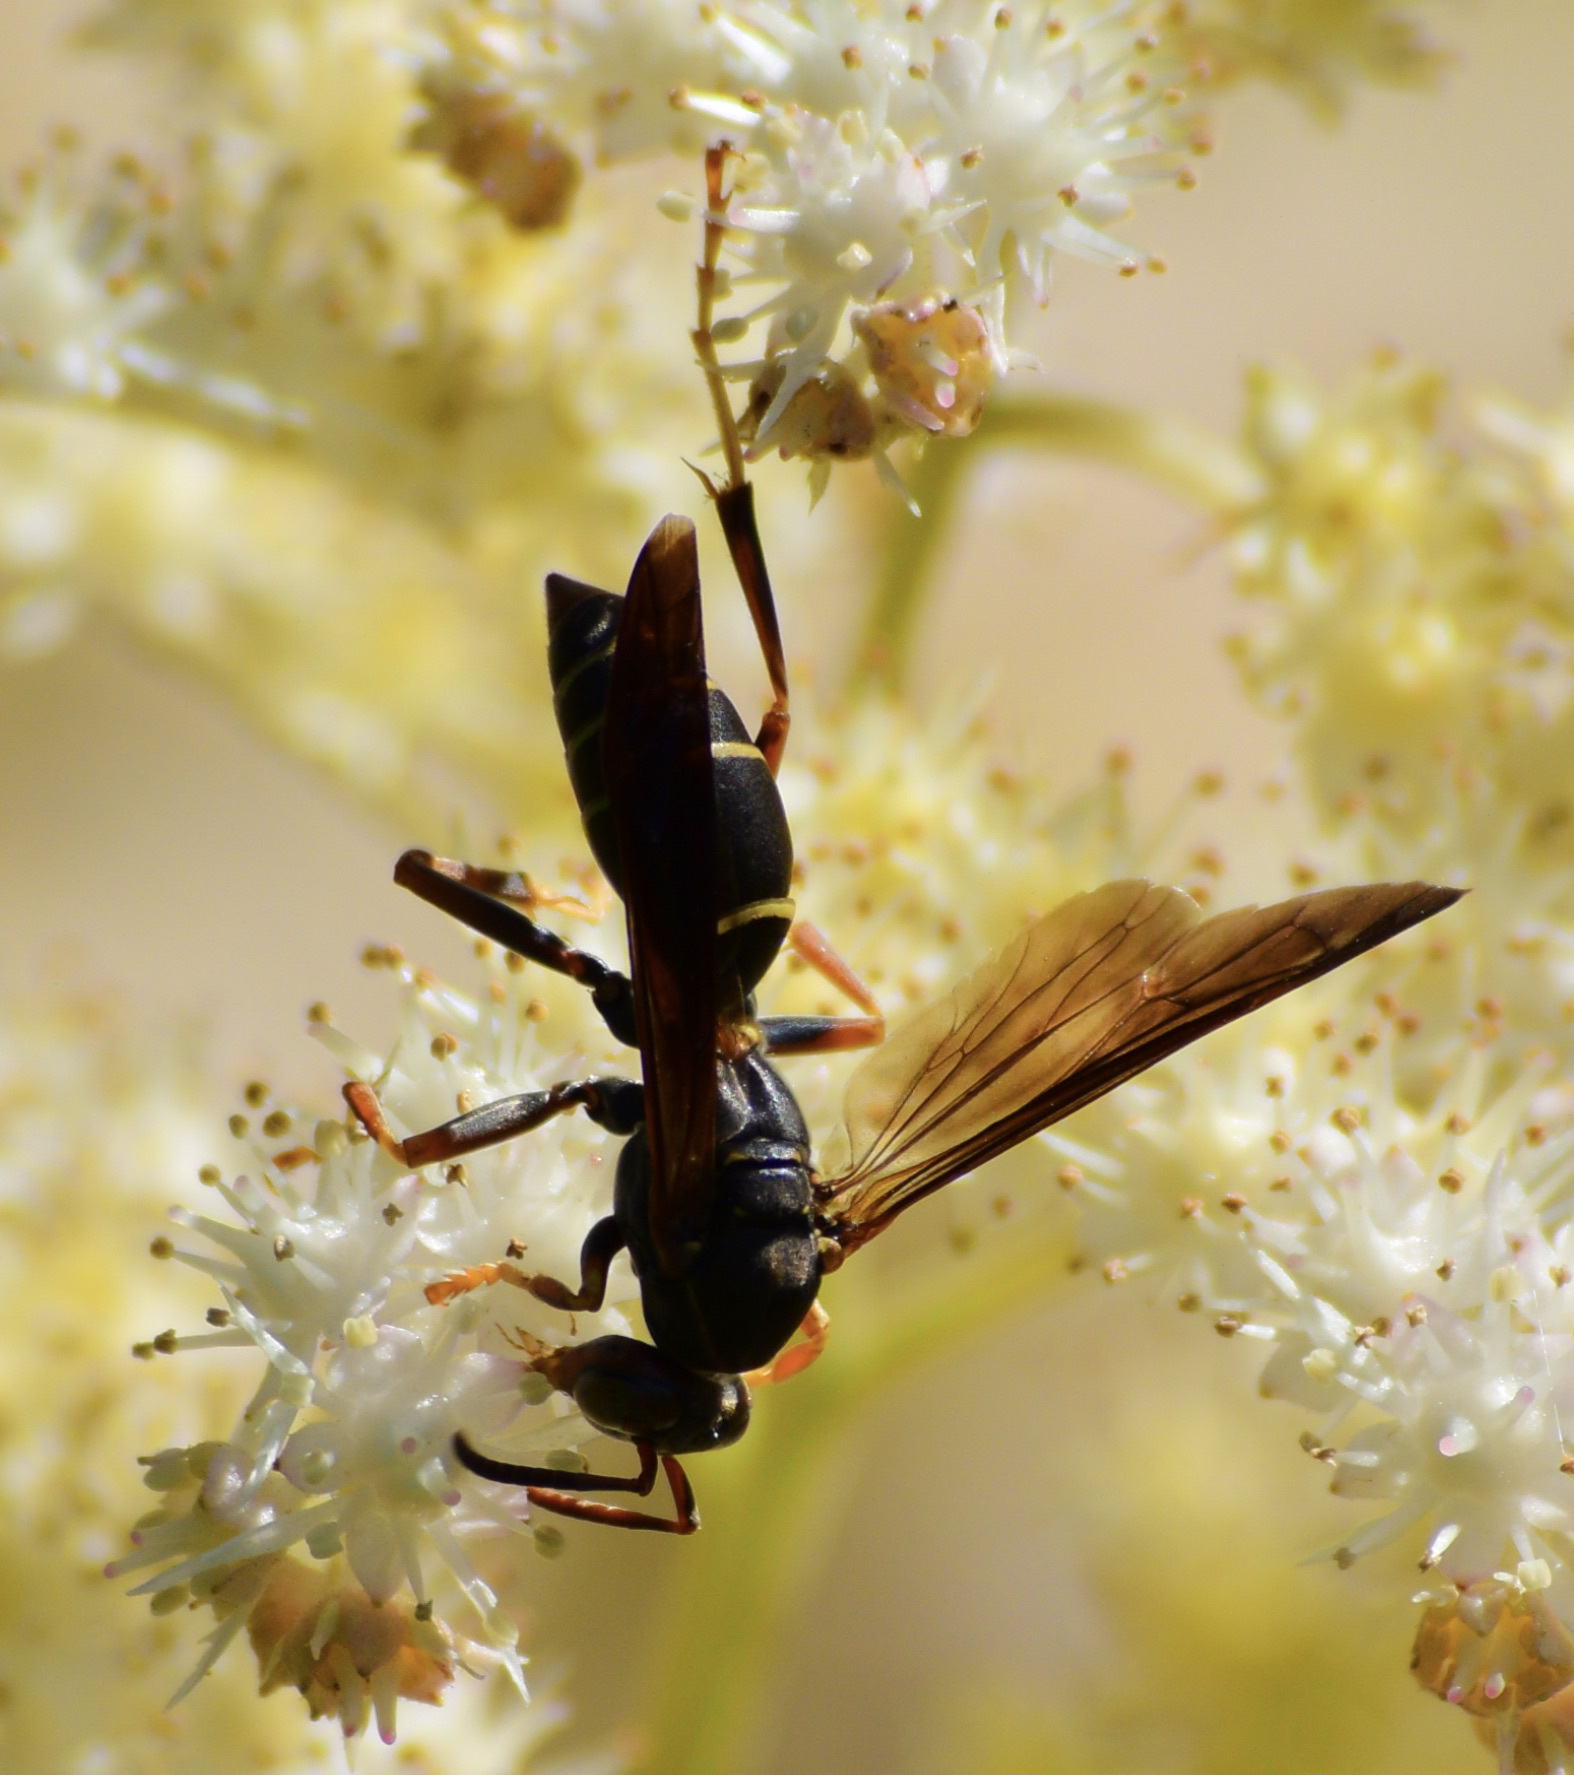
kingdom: Animalia
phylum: Arthropoda
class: Insecta
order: Hymenoptera
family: Eumenidae
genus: Polistes
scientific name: Polistes fuscatus
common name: Dark paper wasp
